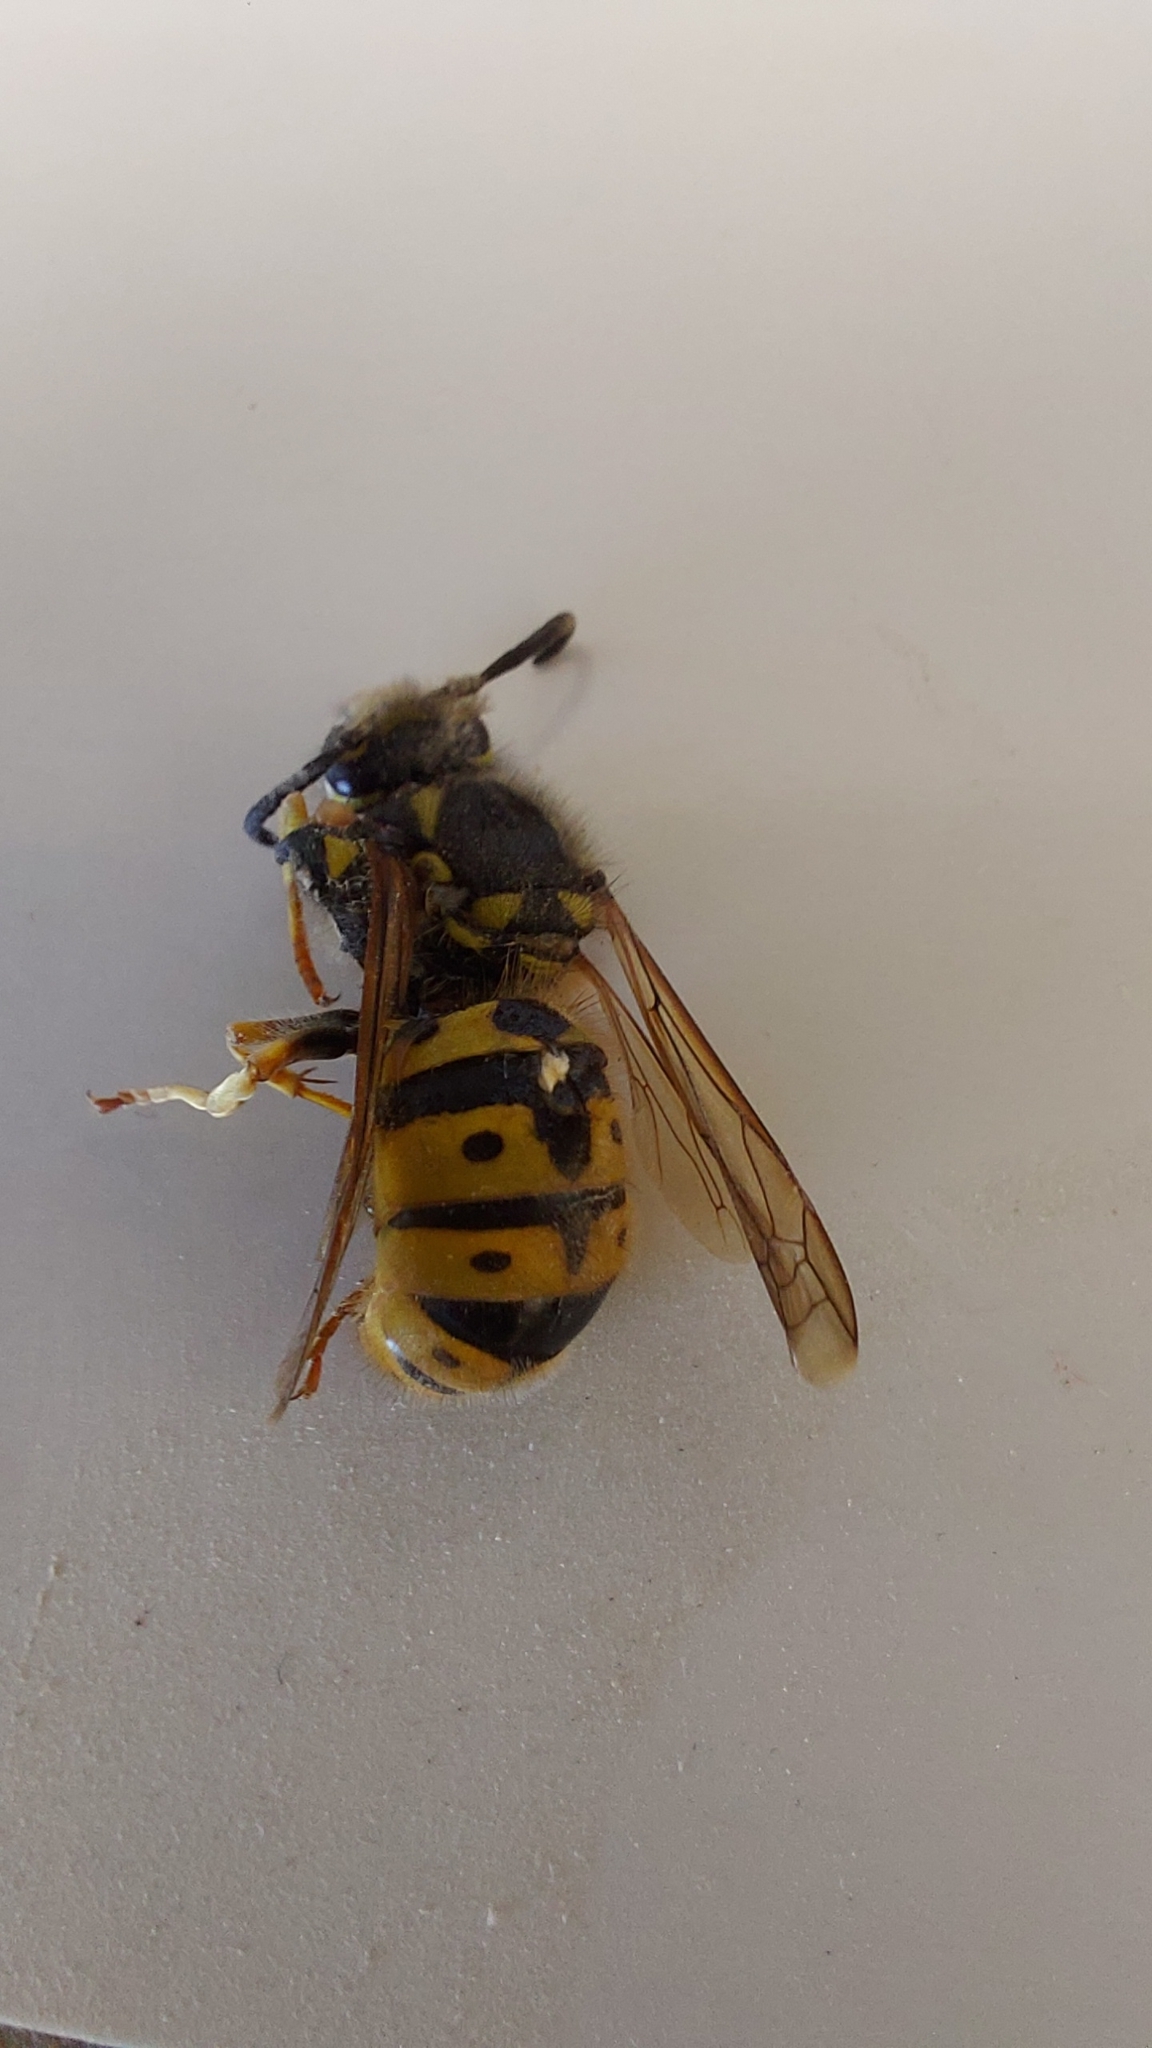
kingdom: Animalia
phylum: Arthropoda
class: Insecta
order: Hymenoptera
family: Vespidae
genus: Vespula
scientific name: Vespula germanica
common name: German wasp
